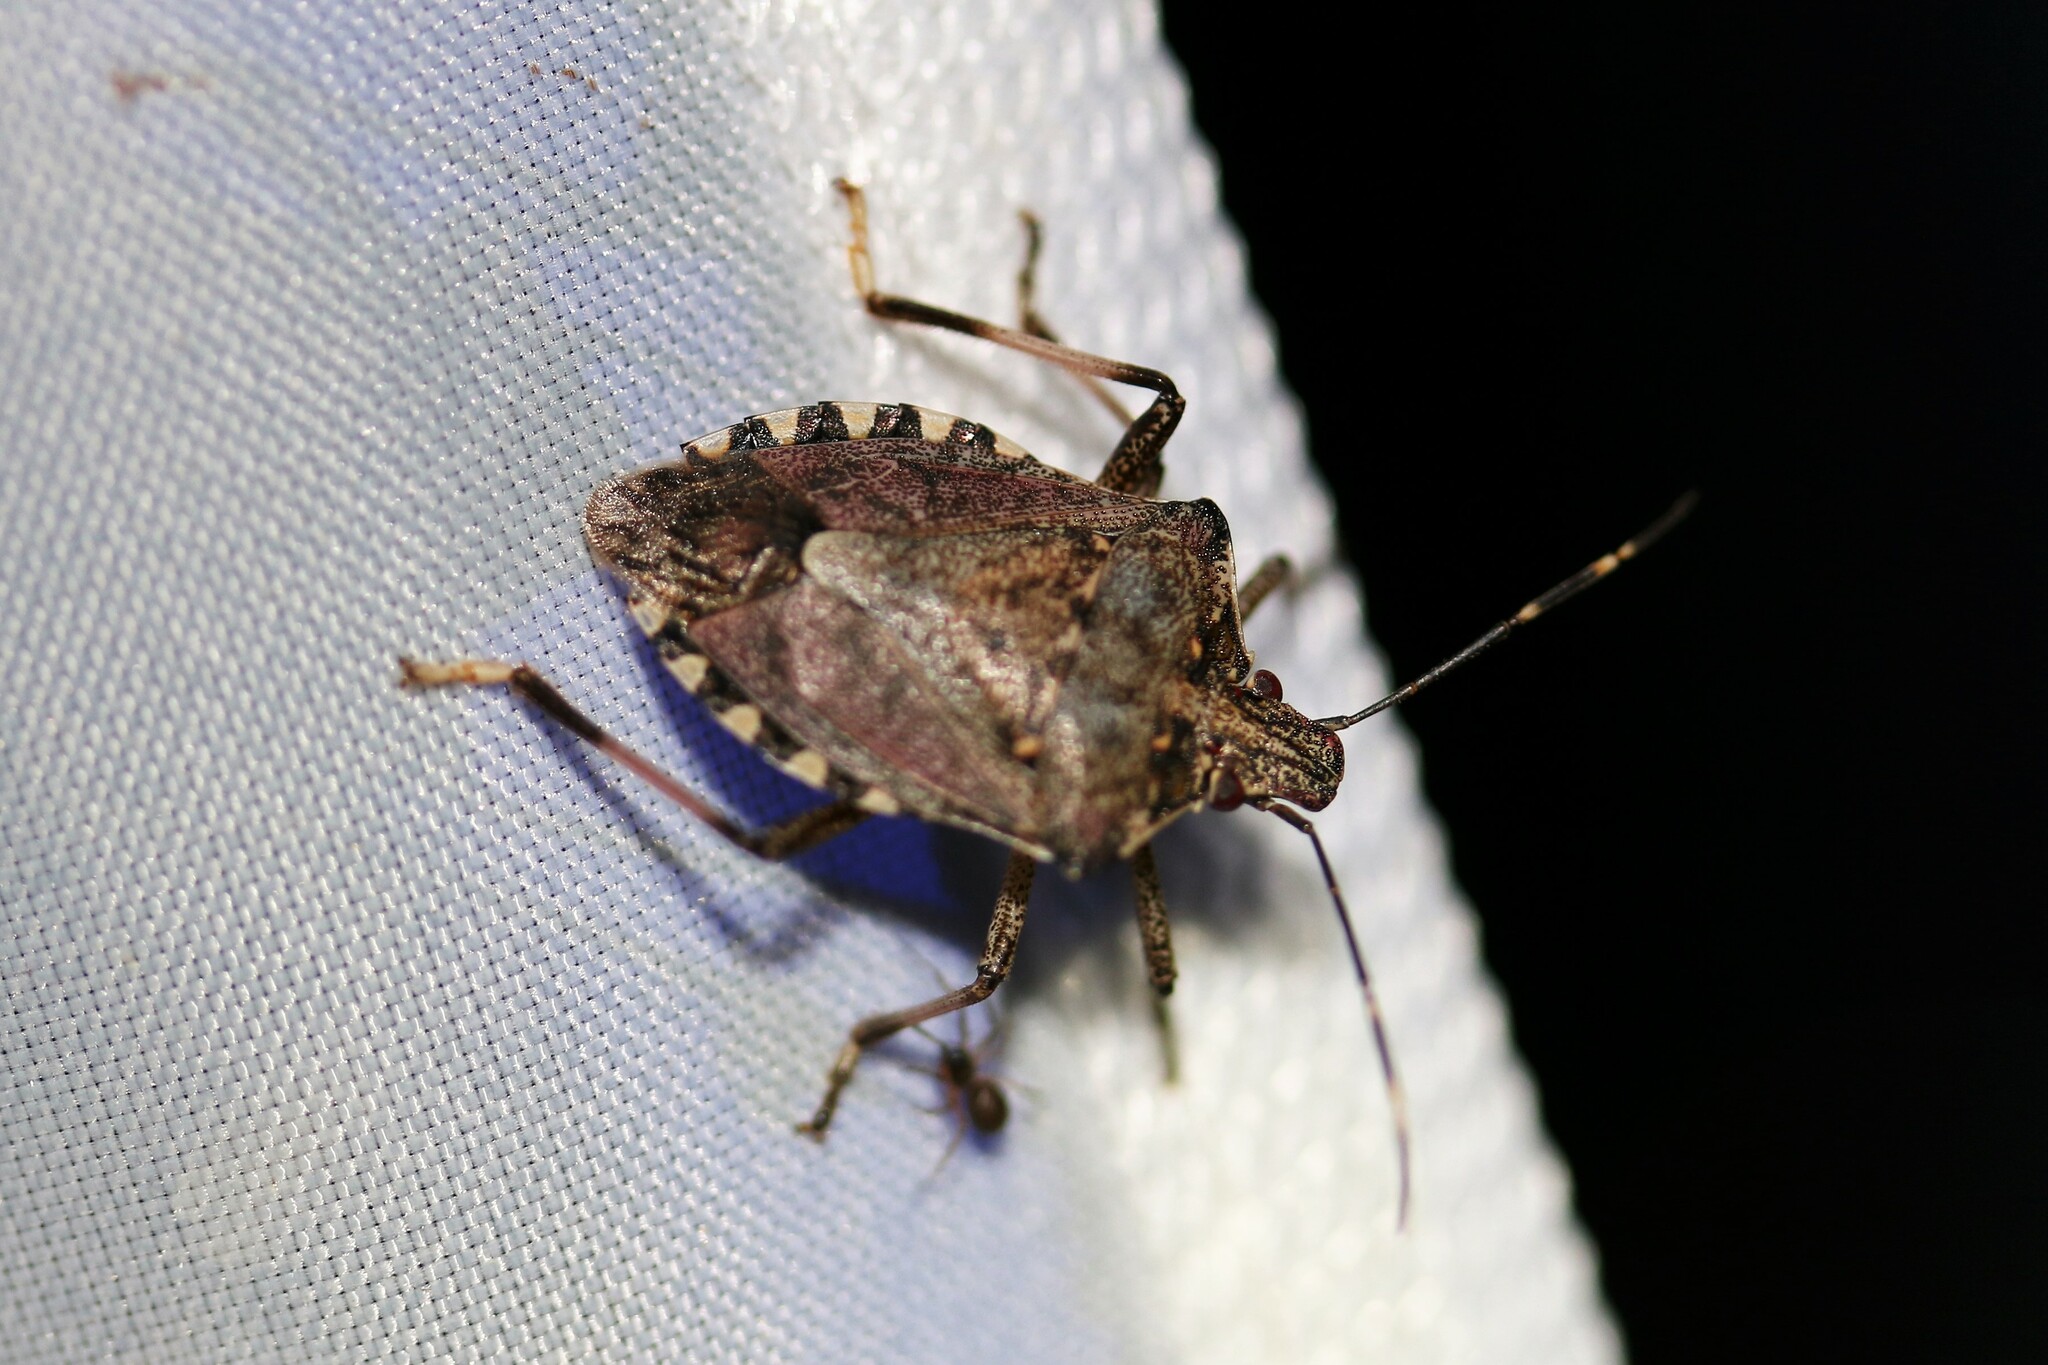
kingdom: Animalia
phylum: Arthropoda
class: Insecta
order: Hemiptera
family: Pentatomidae
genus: Halyomorpha
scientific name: Halyomorpha halys
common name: Brown marmorated stink bug
